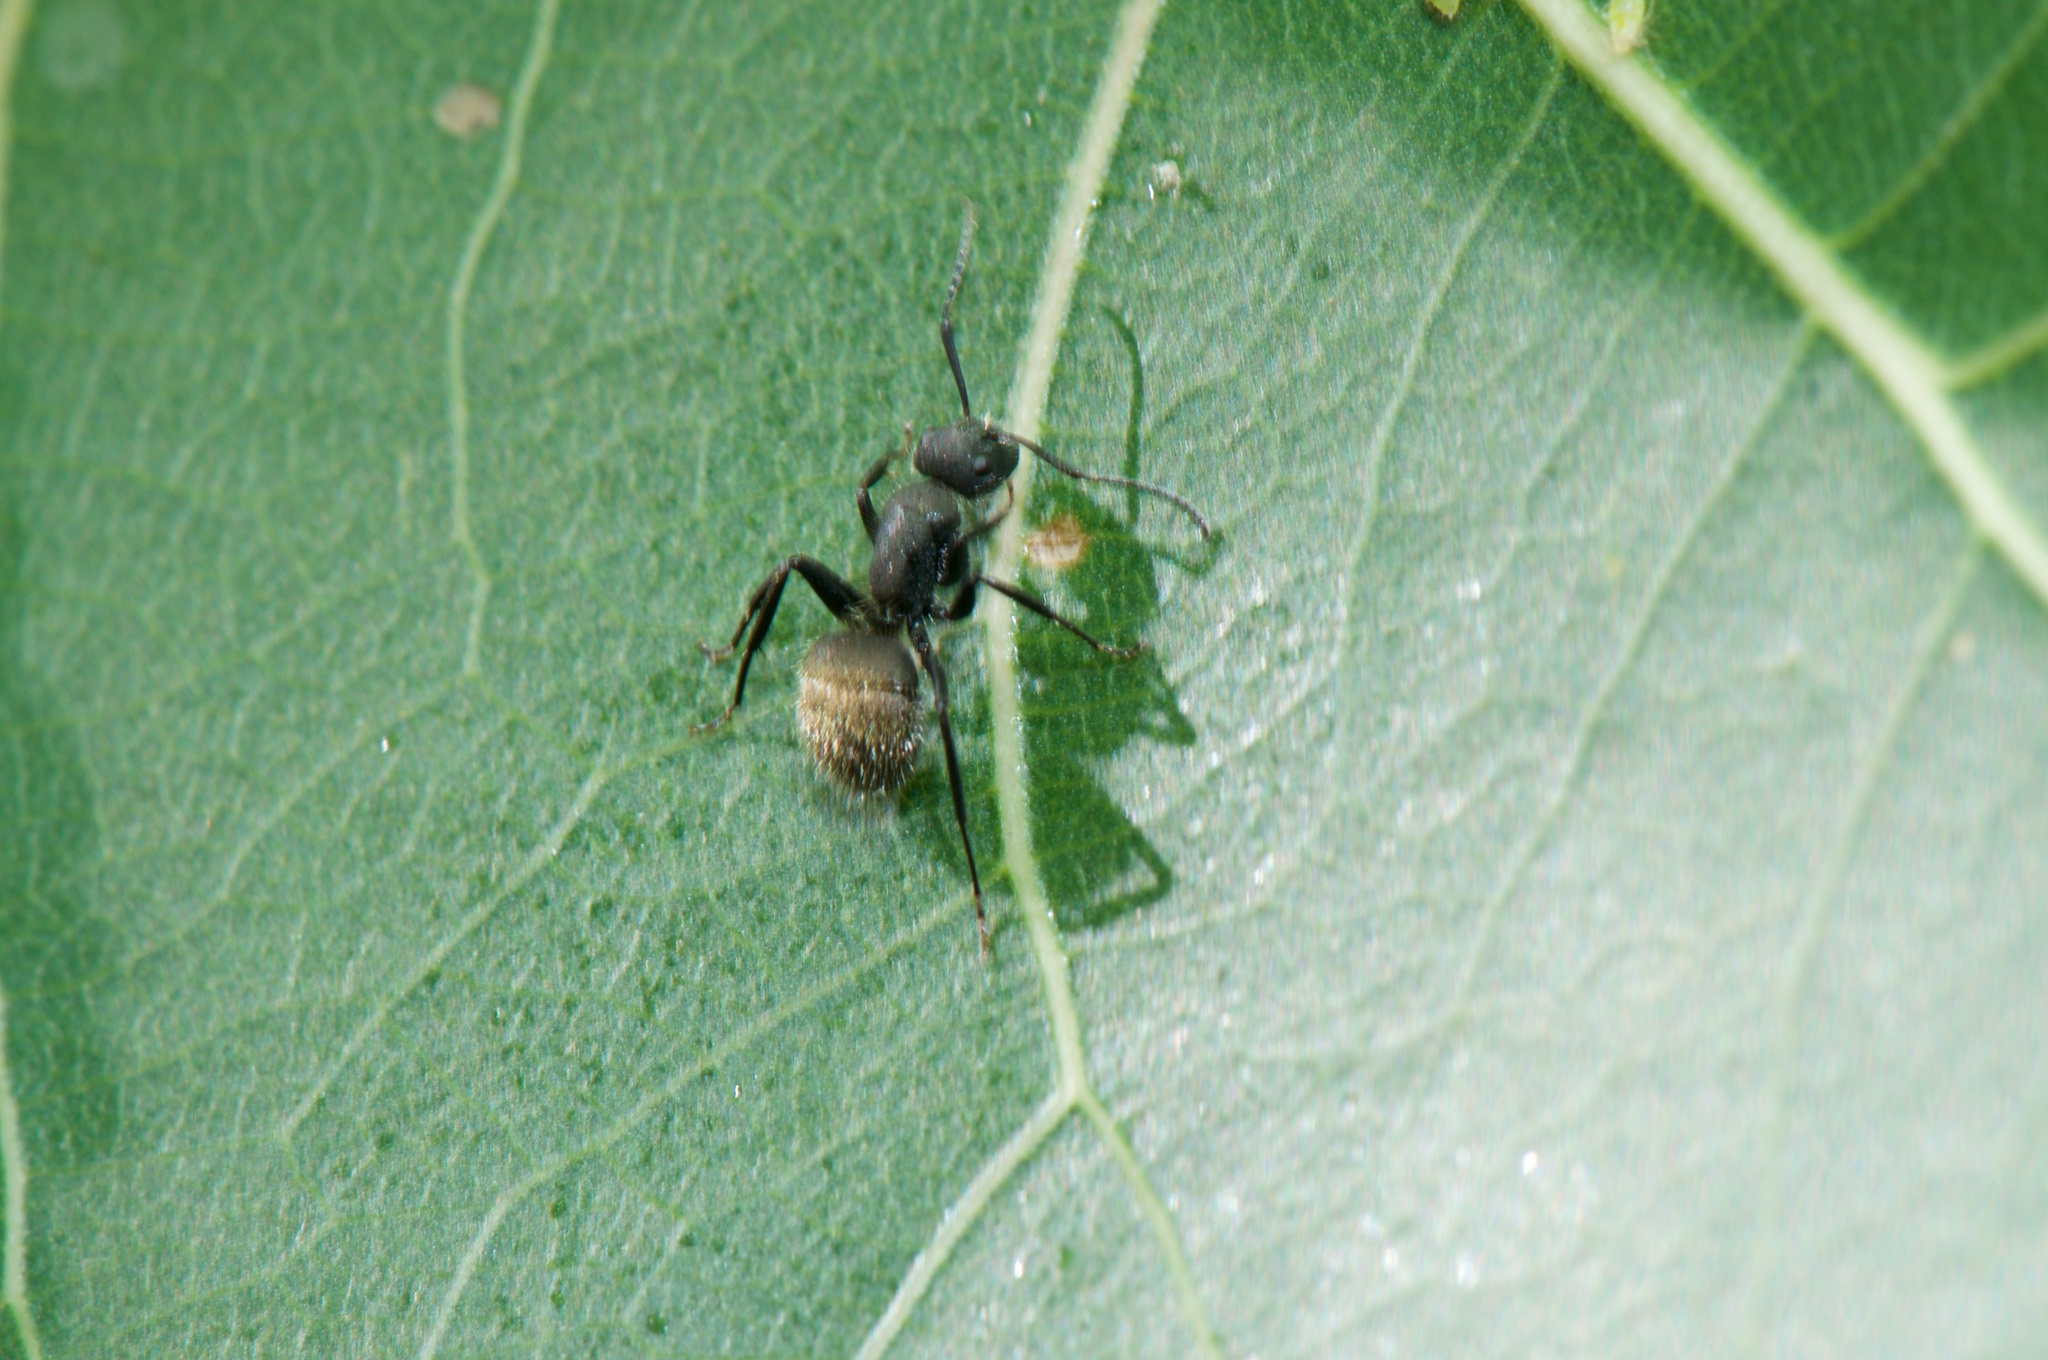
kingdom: Animalia
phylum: Arthropoda
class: Insecta
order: Hymenoptera
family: Formicidae
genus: Camponotus
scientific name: Camponotus mus
